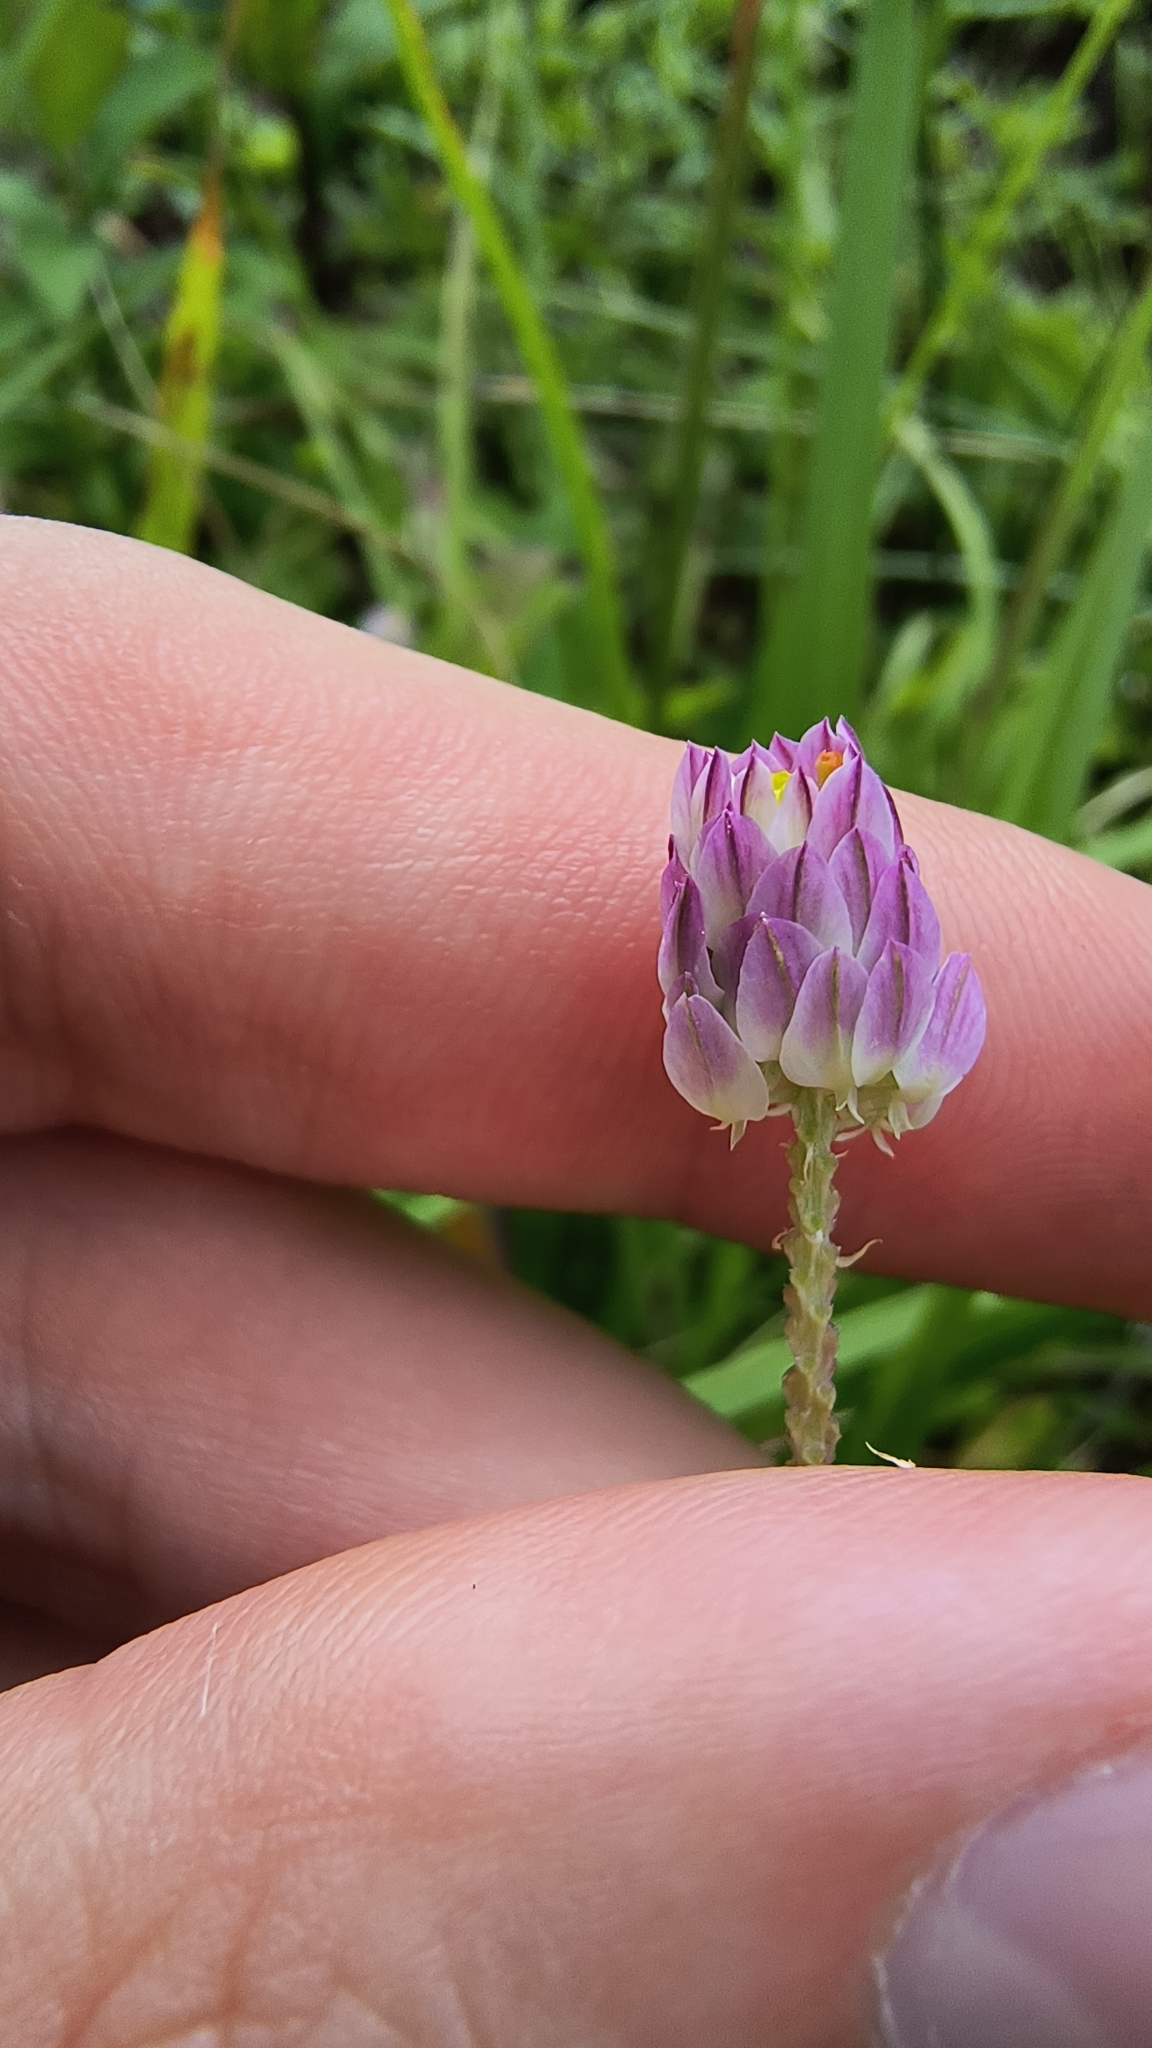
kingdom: Plantae
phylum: Tracheophyta
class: Magnoliopsida
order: Fabales
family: Polygalaceae
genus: Polygala
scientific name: Polygala sanguinea
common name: Blood milkwort
